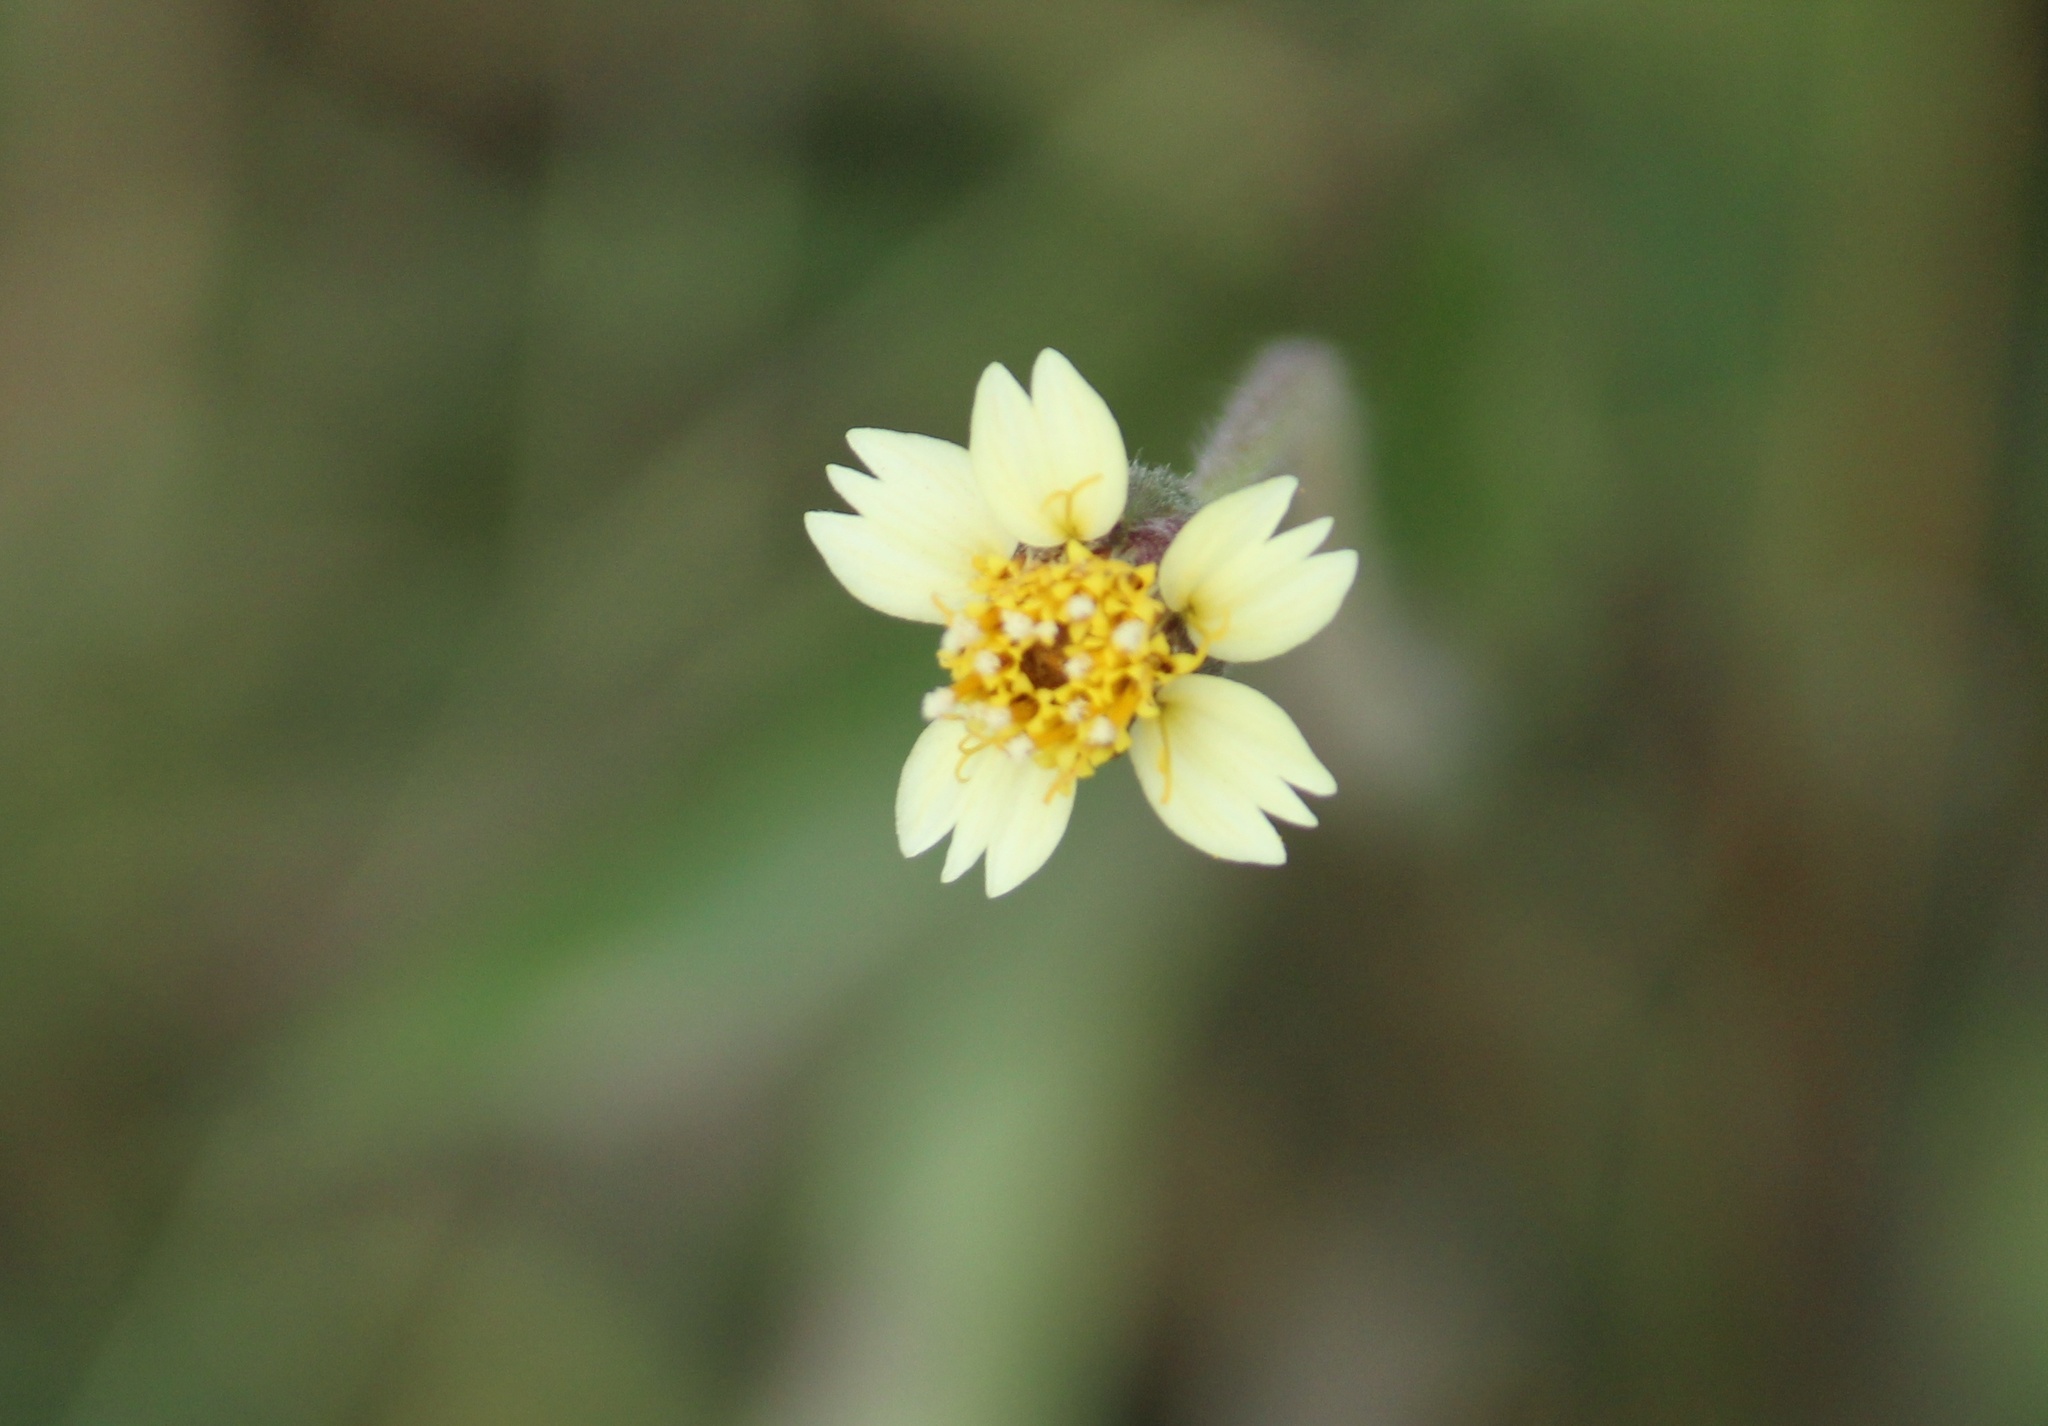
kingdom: Plantae
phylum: Tracheophyta
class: Magnoliopsida
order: Asterales
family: Asteraceae
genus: Tridax
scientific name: Tridax procumbens
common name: Coatbuttons
